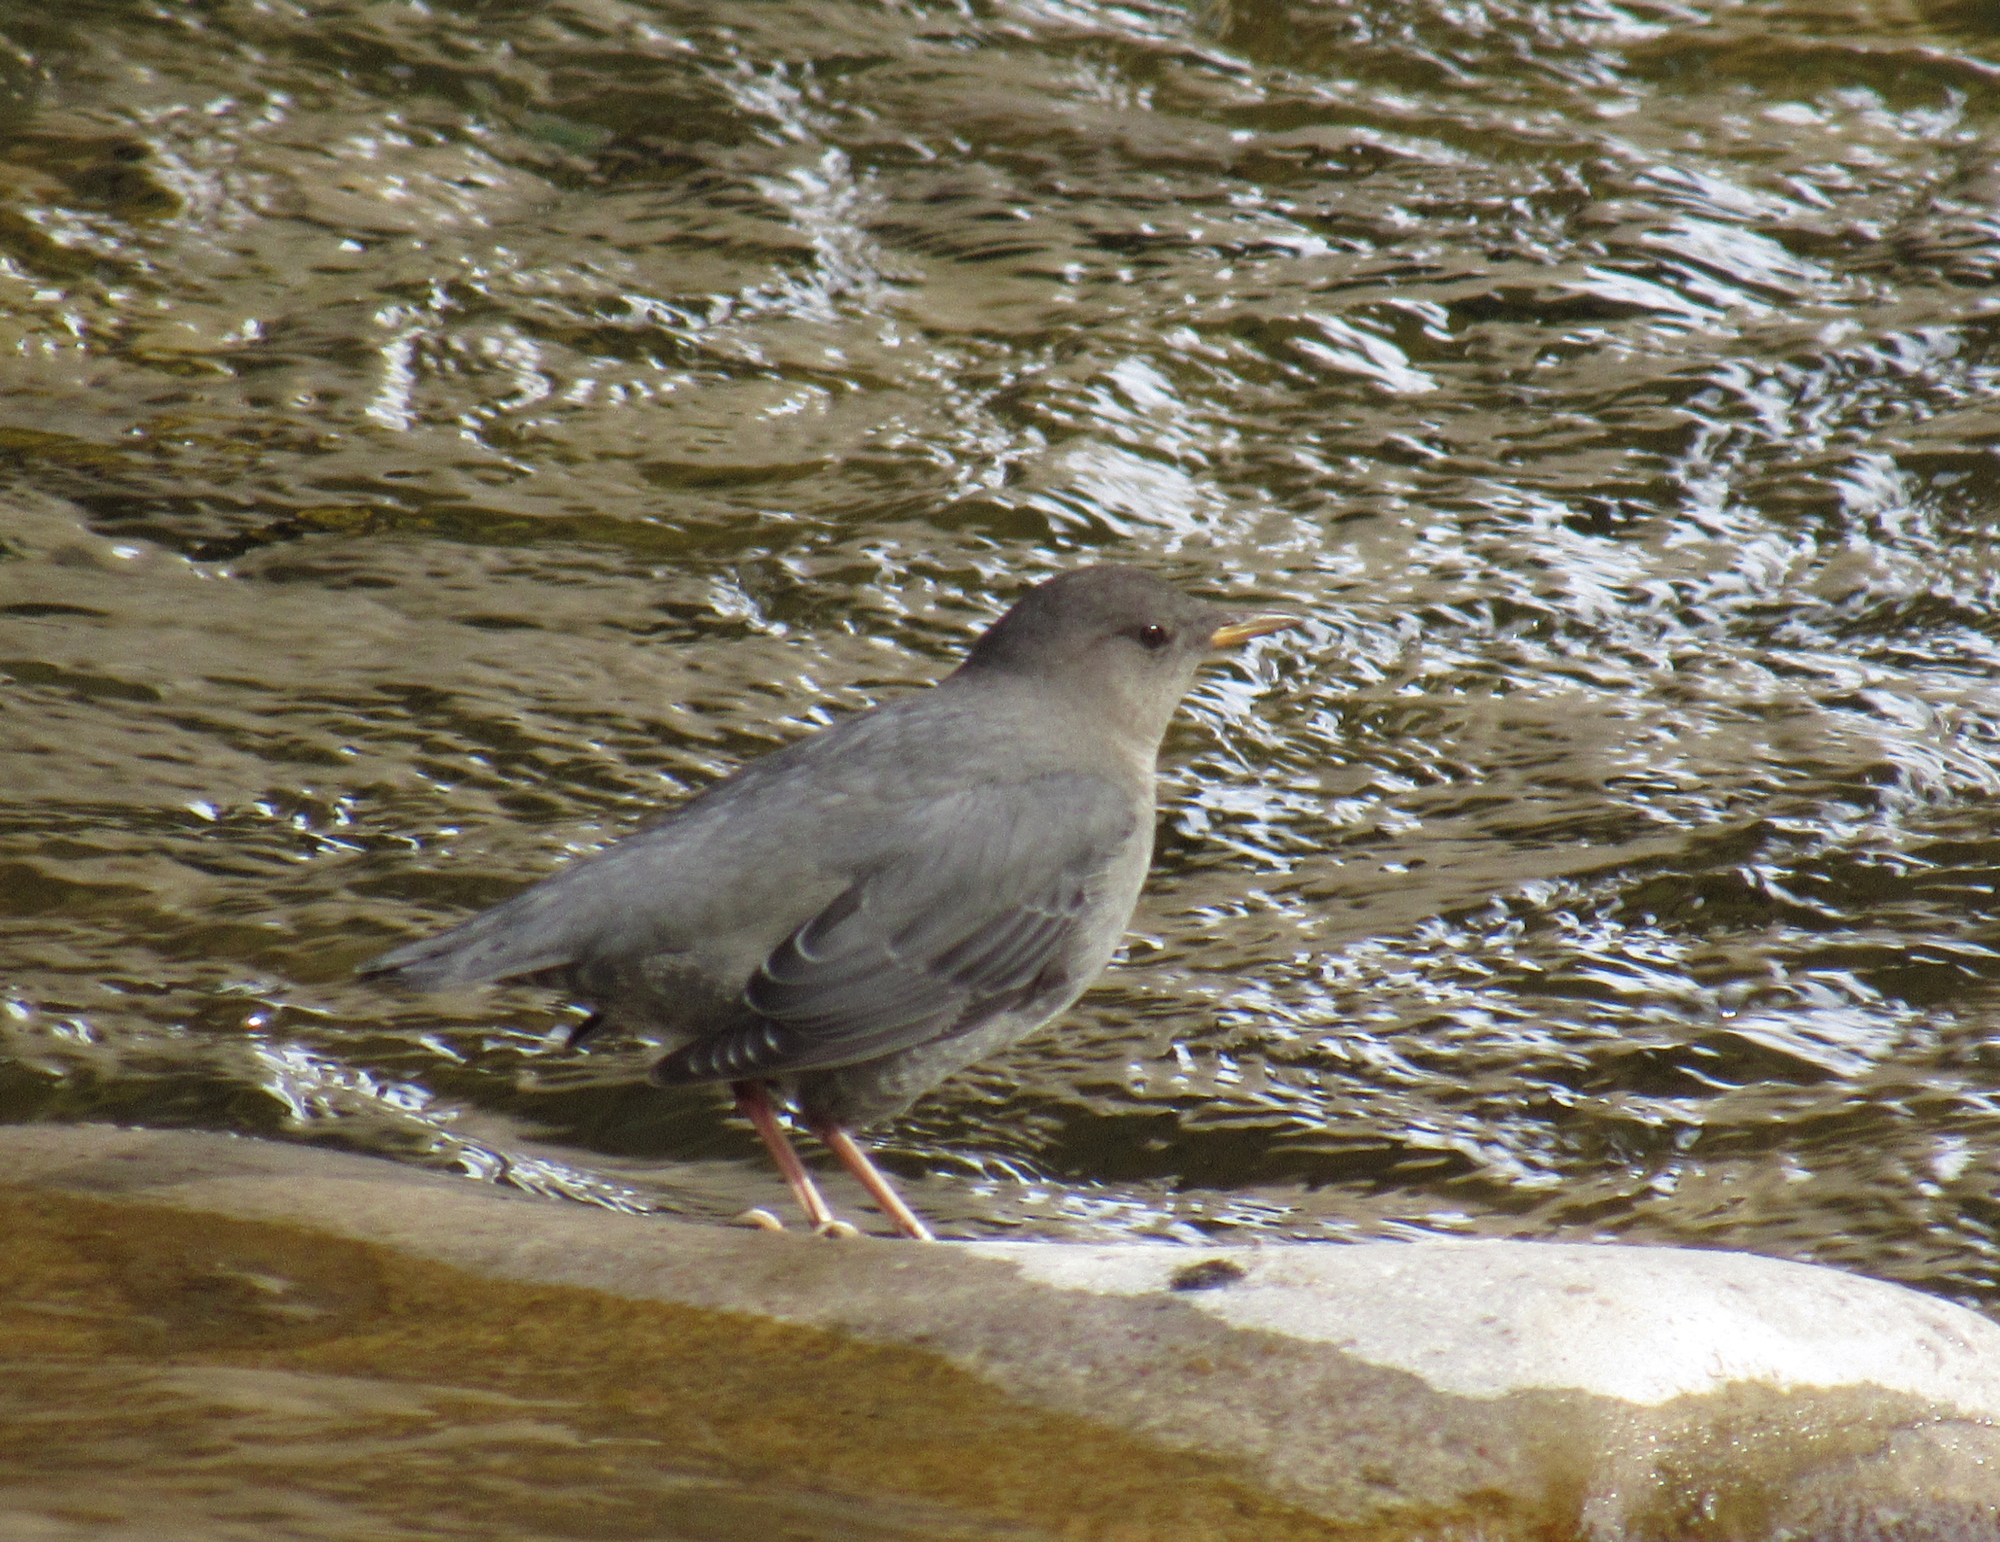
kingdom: Animalia
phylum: Chordata
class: Aves
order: Passeriformes
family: Cinclidae
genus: Cinclus
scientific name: Cinclus mexicanus
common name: American dipper
